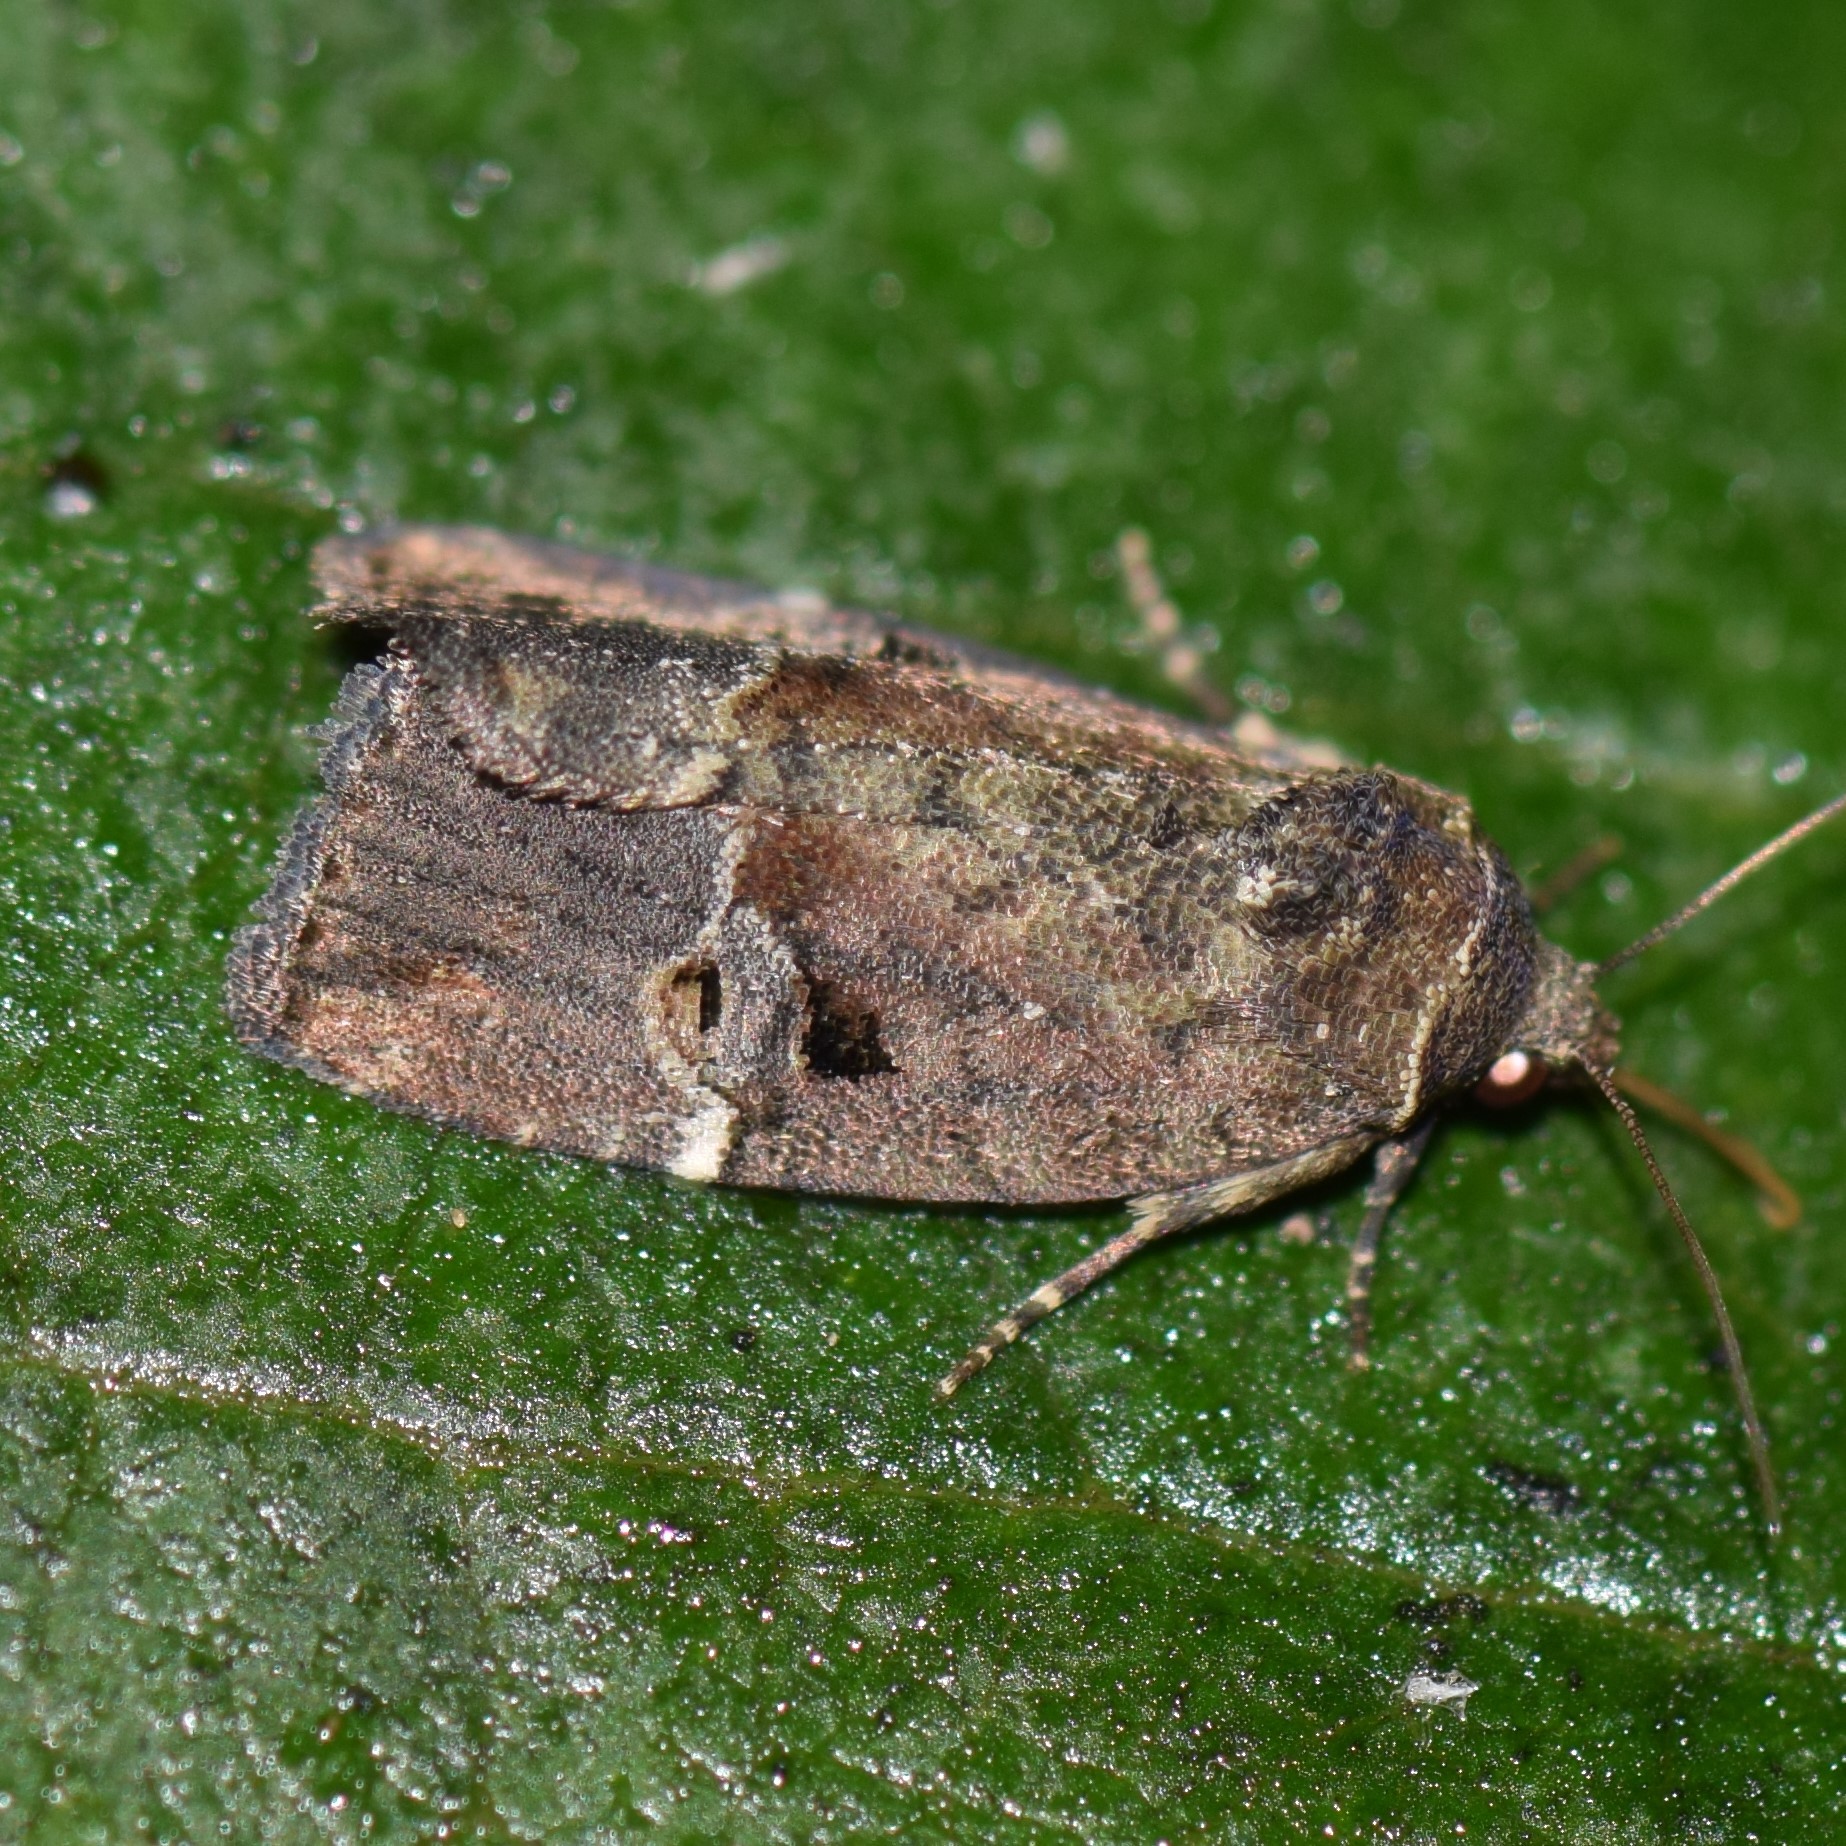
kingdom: Animalia
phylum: Arthropoda
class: Insecta
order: Lepidoptera
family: Noctuidae
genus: Elaphria
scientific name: Elaphria versicolor
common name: Fir harlequin
